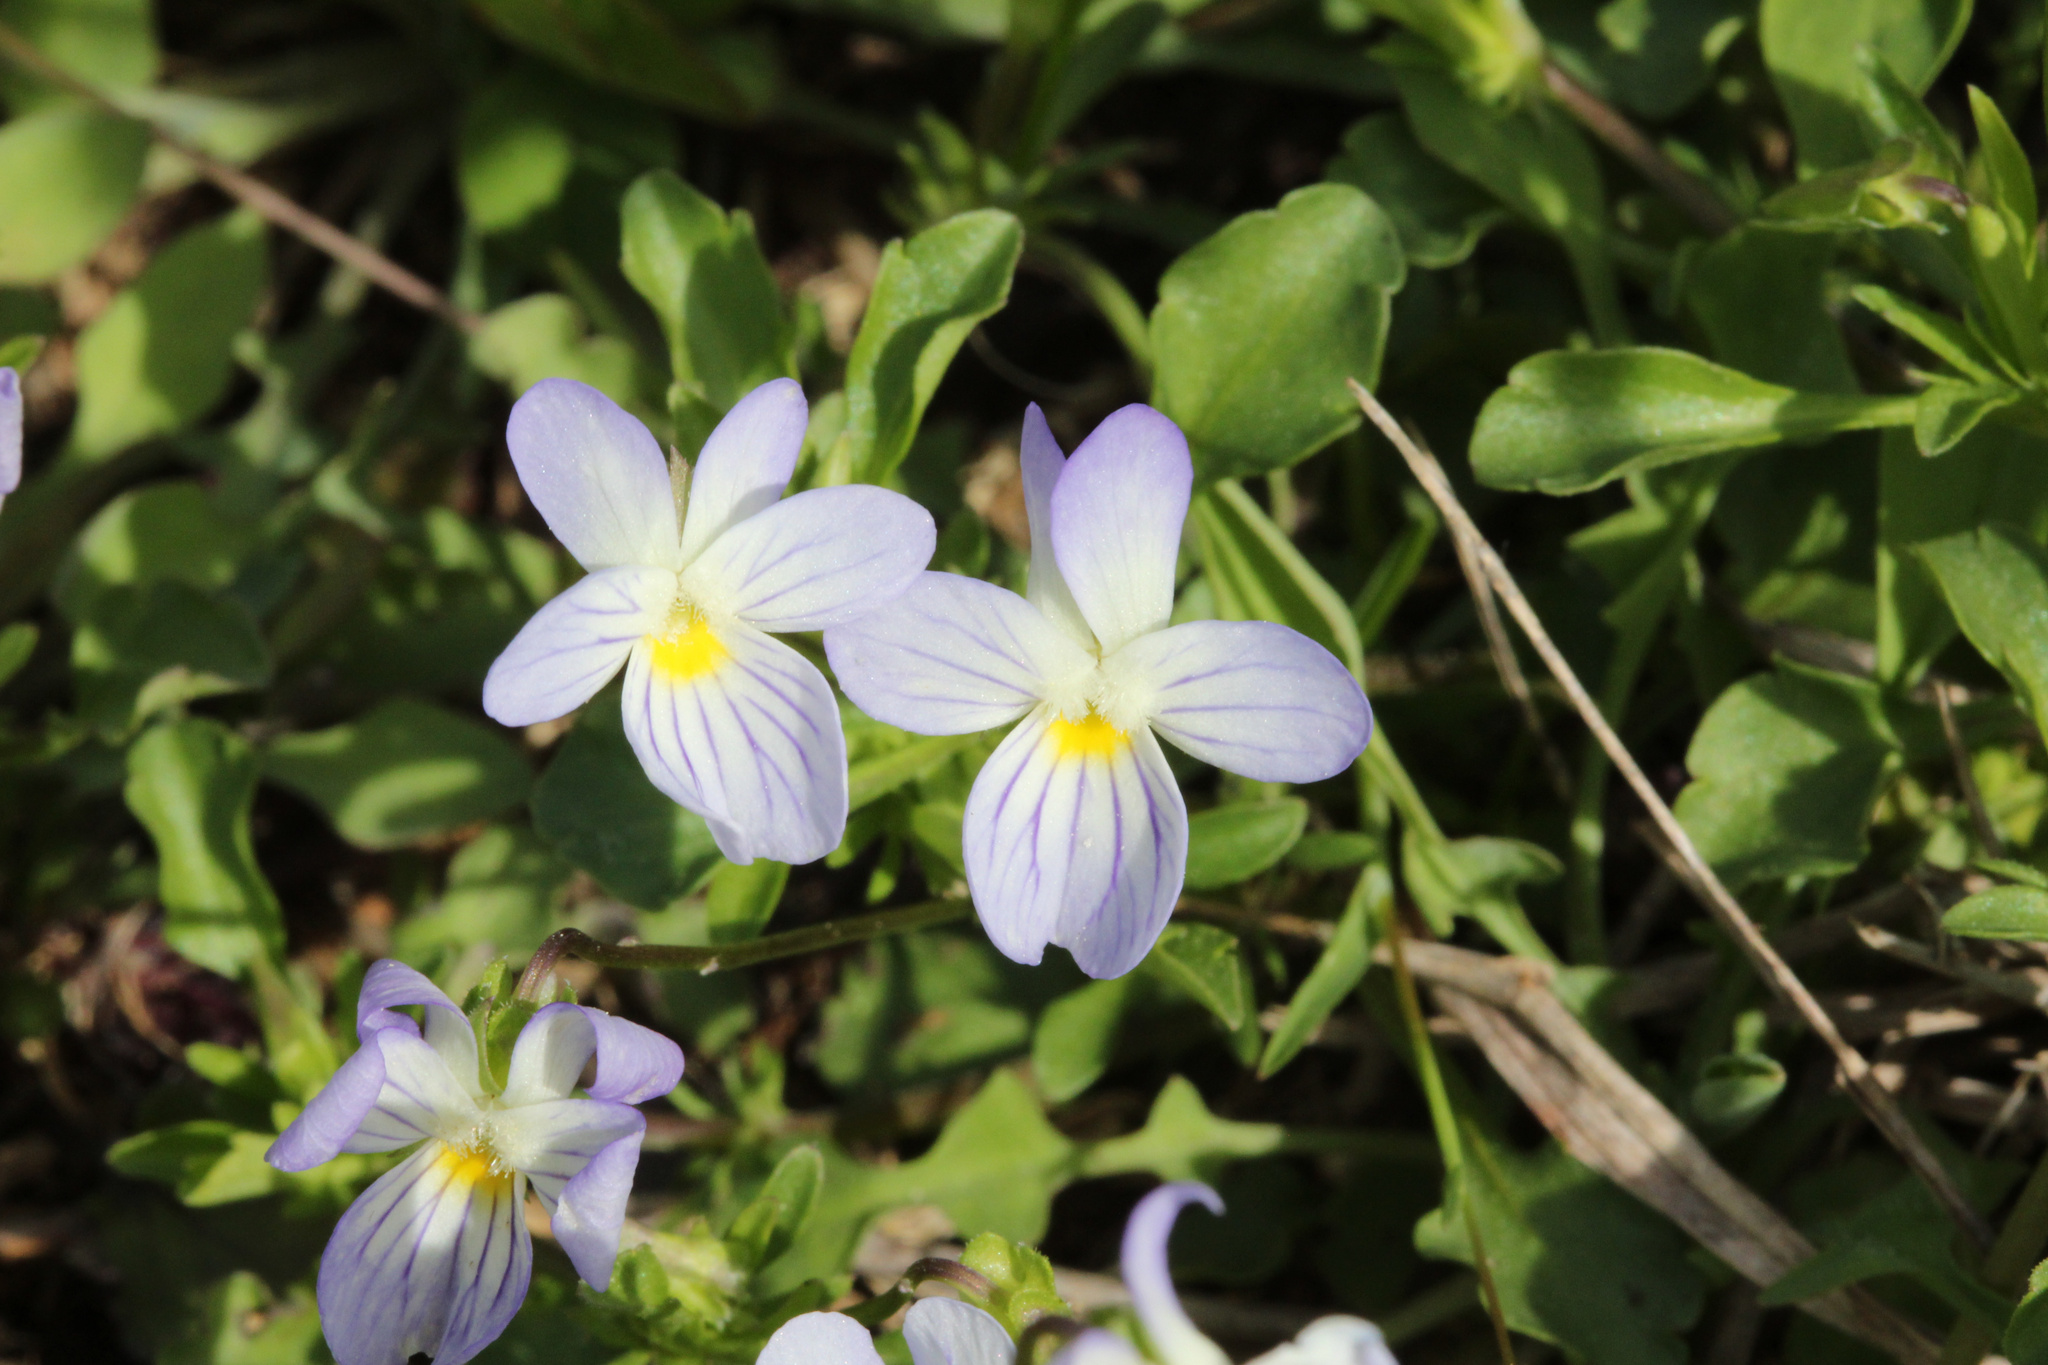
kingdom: Plantae
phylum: Tracheophyta
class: Magnoliopsida
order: Malpighiales
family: Violaceae
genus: Viola
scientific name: Viola rafinesquei
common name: American field pansy
